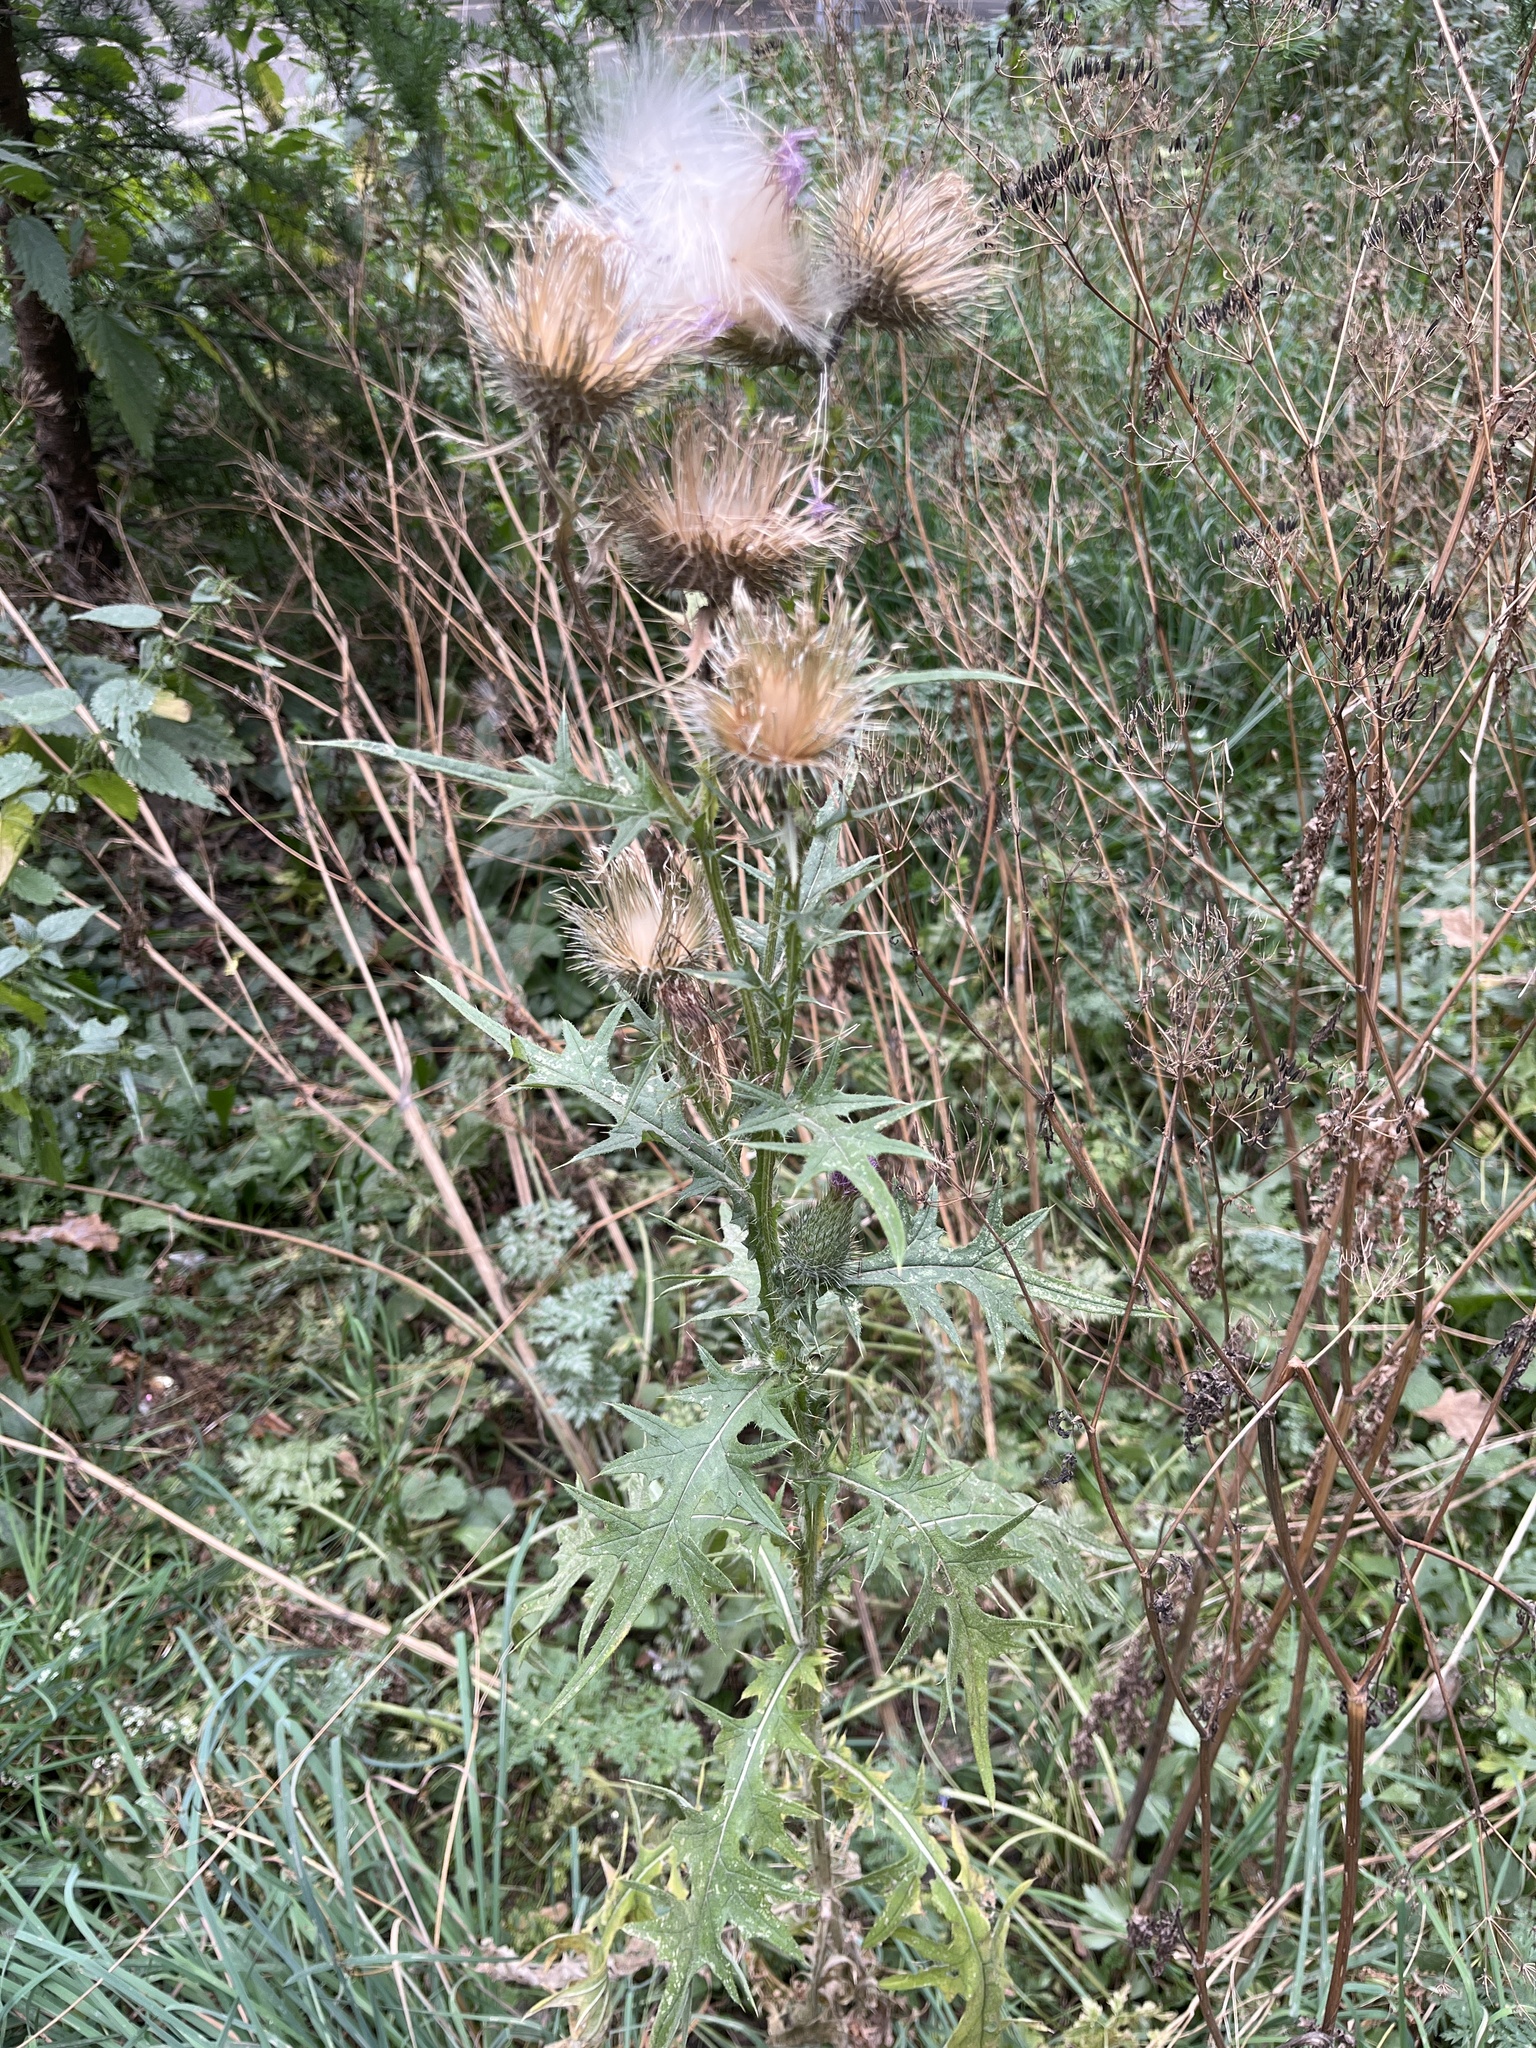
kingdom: Plantae
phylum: Tracheophyta
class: Magnoliopsida
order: Asterales
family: Asteraceae
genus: Cirsium
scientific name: Cirsium vulgare
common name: Bull thistle
